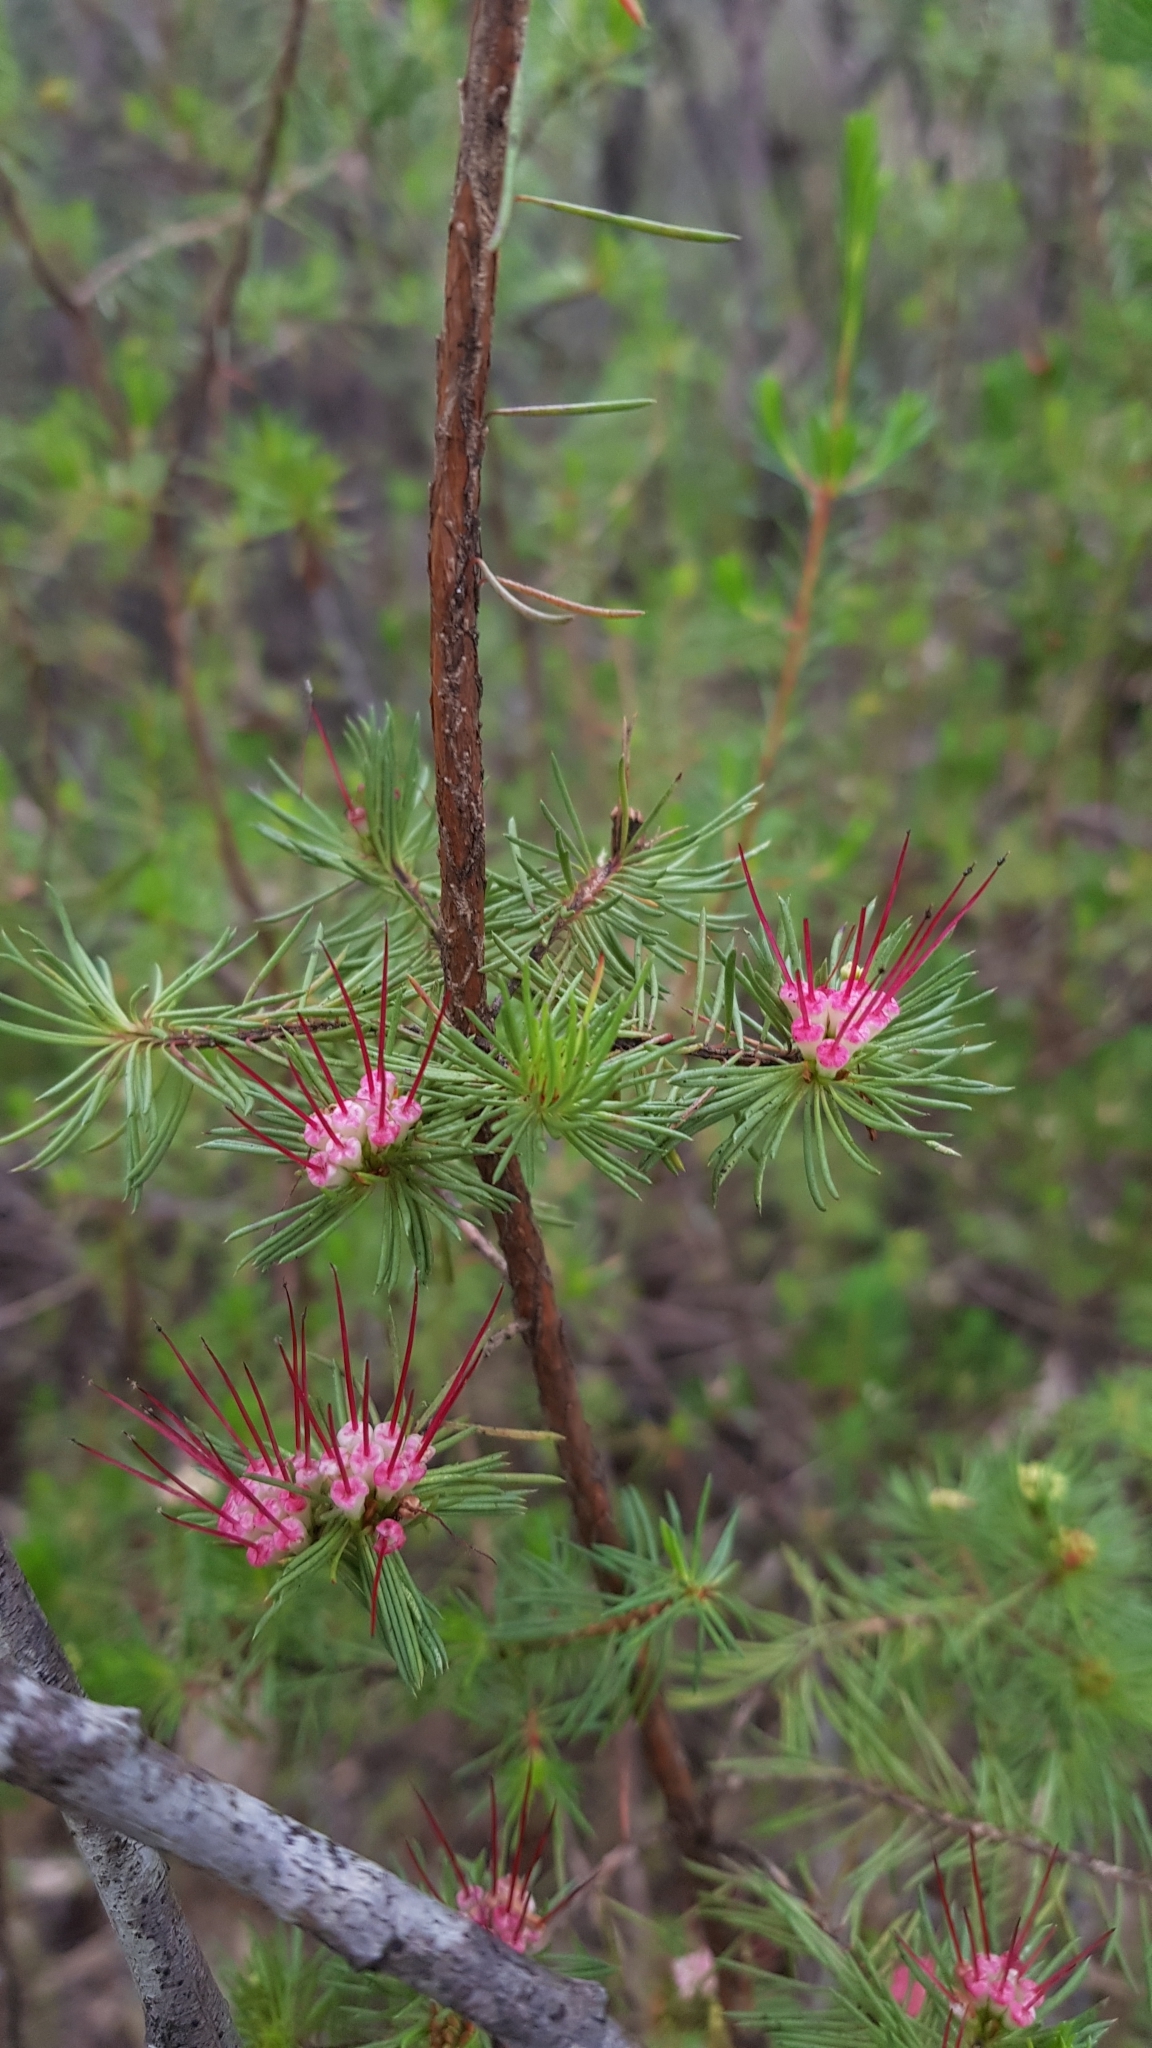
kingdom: Plantae
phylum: Tracheophyta
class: Magnoliopsida
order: Myrtales
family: Myrtaceae
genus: Darwinia
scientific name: Darwinia fascicularis
